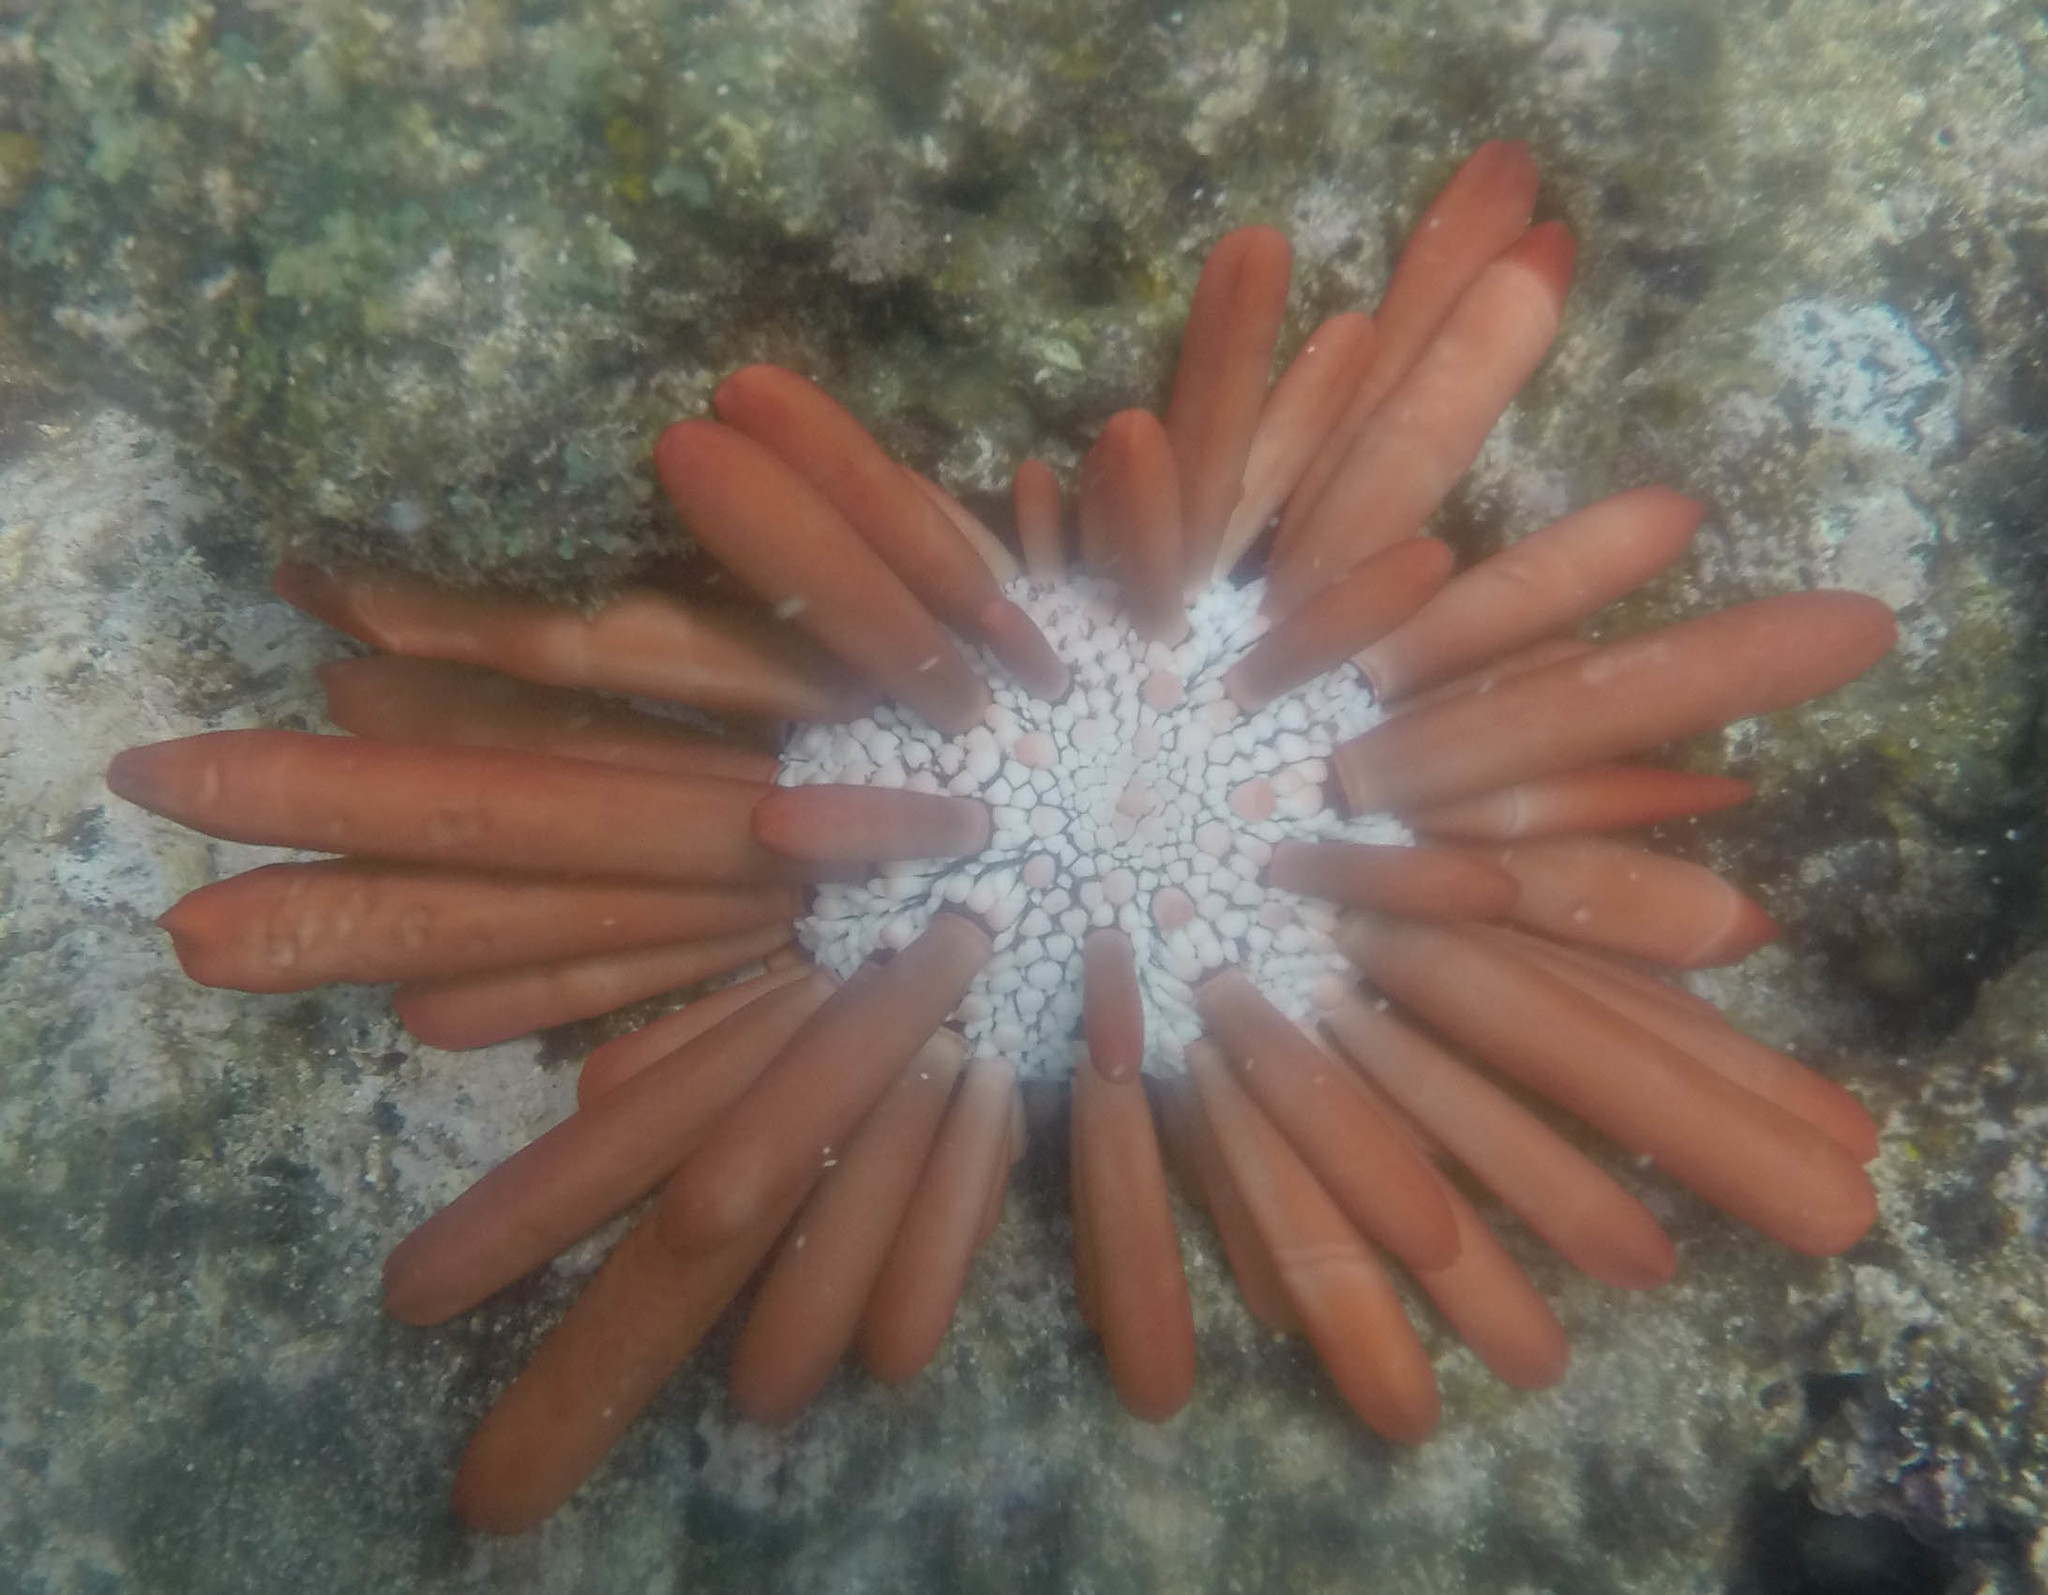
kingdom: Animalia
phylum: Echinodermata
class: Echinoidea
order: Camarodonta
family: Echinometridae
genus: Heterocentrotus
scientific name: Heterocentrotus mamillatus
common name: Slate pencil urchin
